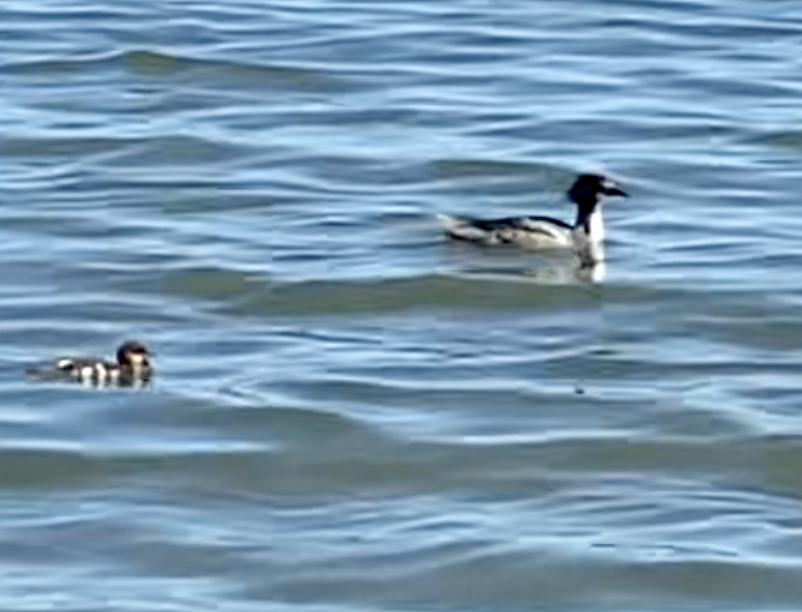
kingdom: Animalia
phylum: Chordata
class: Aves
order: Anseriformes
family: Anatidae
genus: Mergus
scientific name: Mergus merganser
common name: Common merganser
